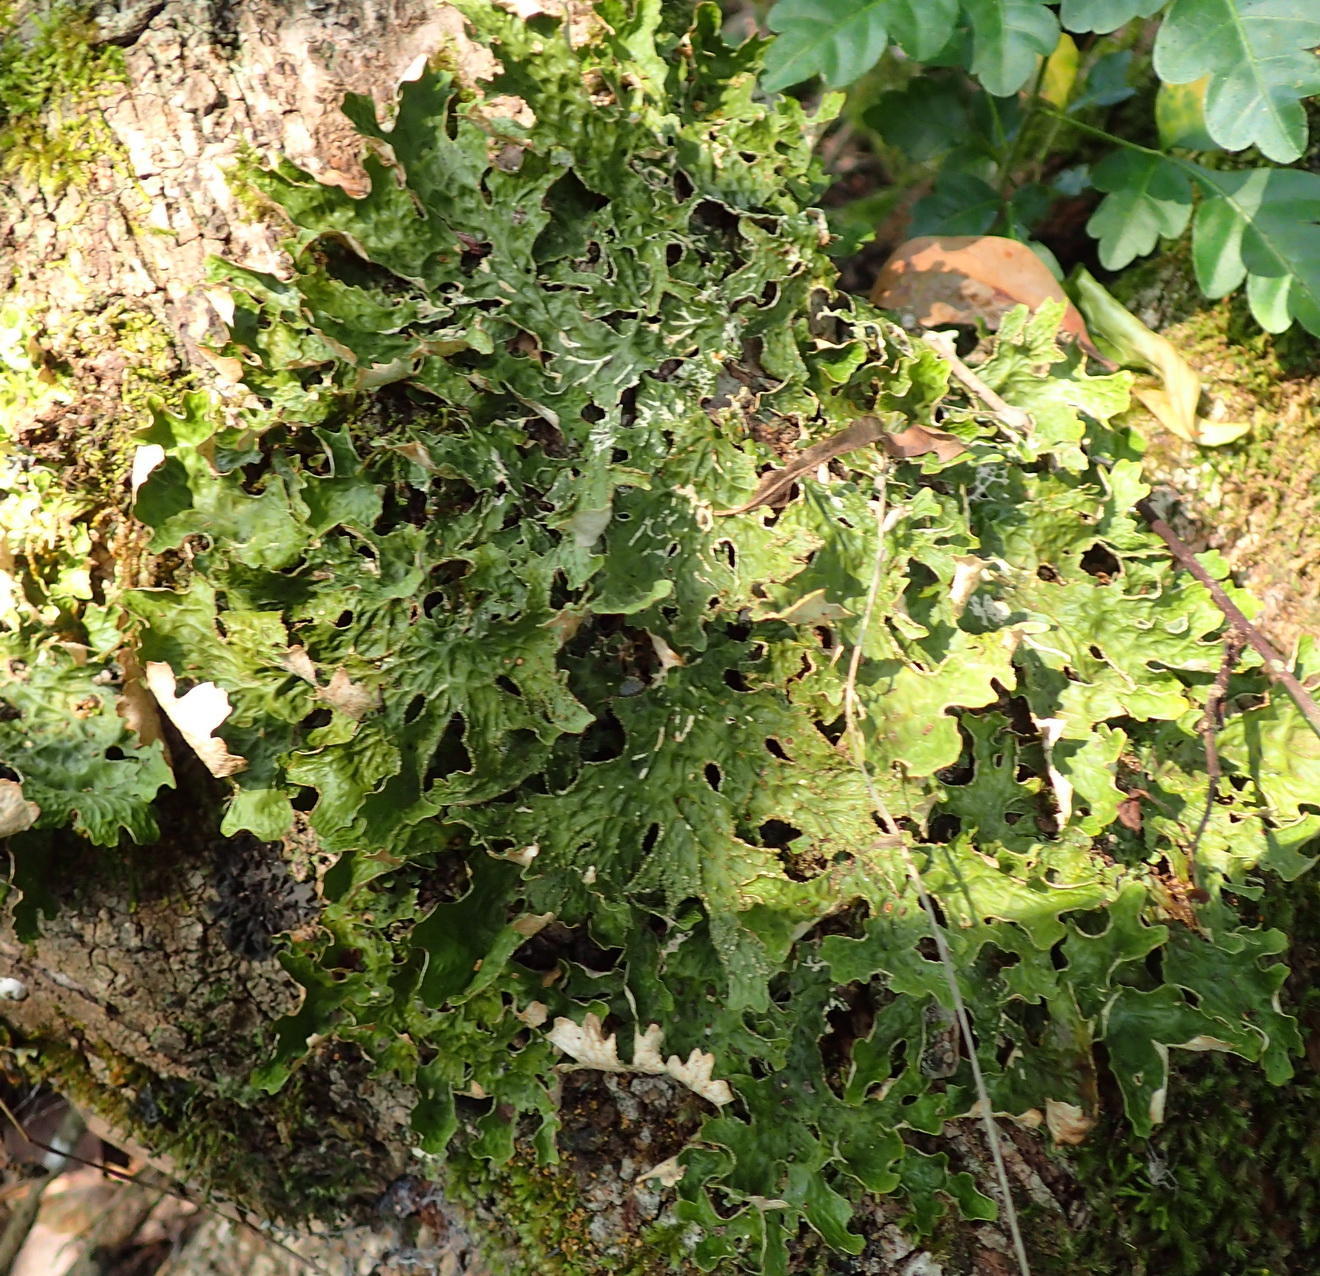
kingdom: Fungi
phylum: Ascomycota
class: Lecanoromycetes
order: Peltigerales
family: Lobariaceae
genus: Lobaria
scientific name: Lobaria pulmonaria
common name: Lungwort
